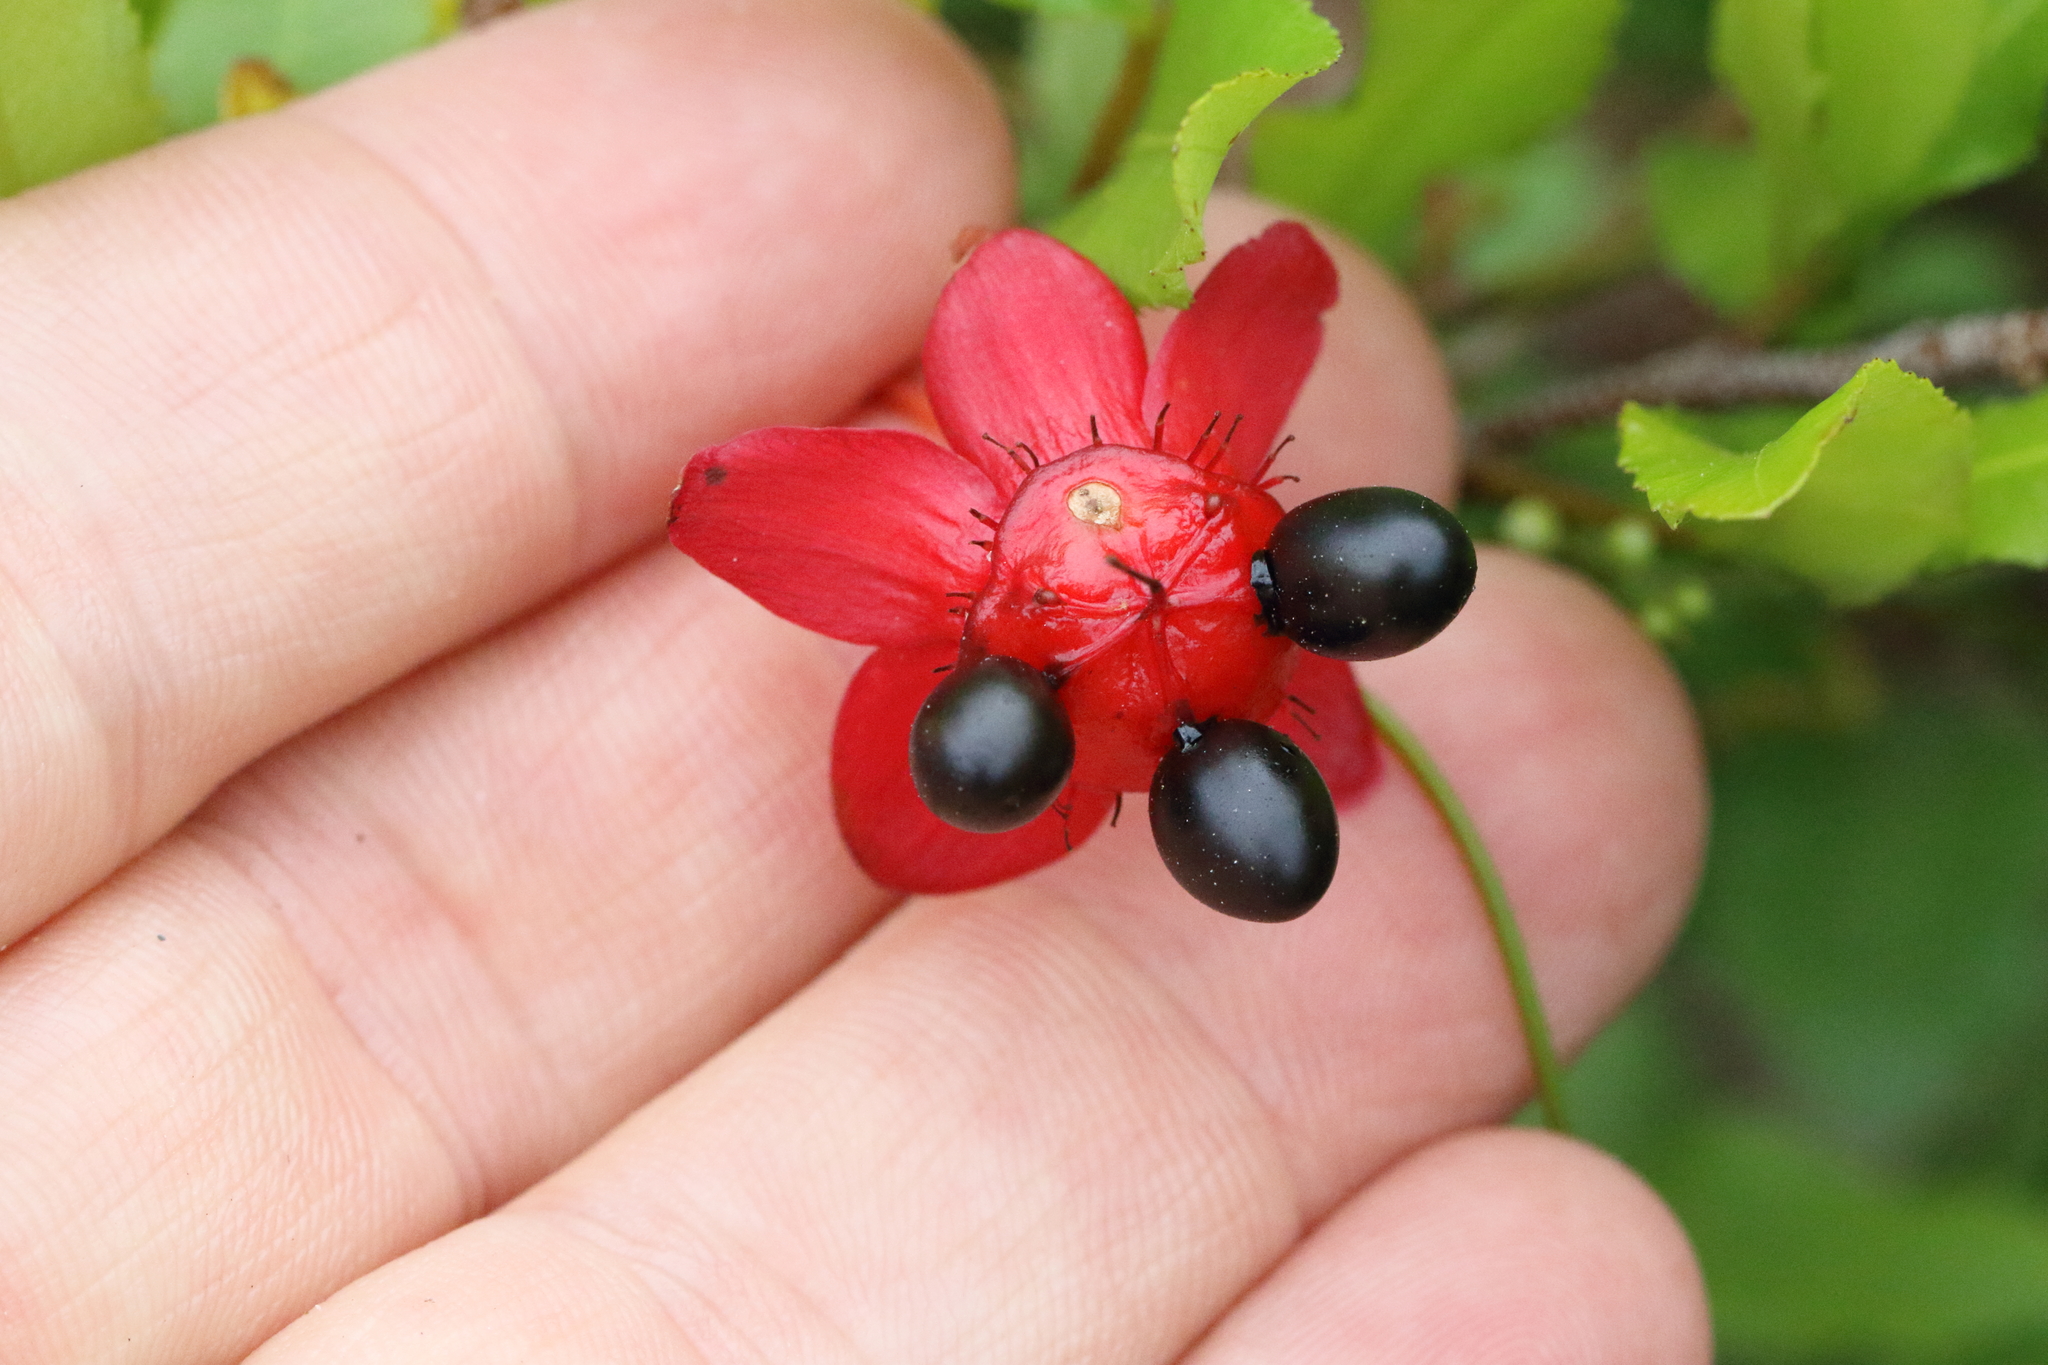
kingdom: Plantae
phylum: Tracheophyta
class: Magnoliopsida
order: Malpighiales
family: Ochnaceae
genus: Ochna
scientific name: Ochna serrulata
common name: Mickey mouse plant
